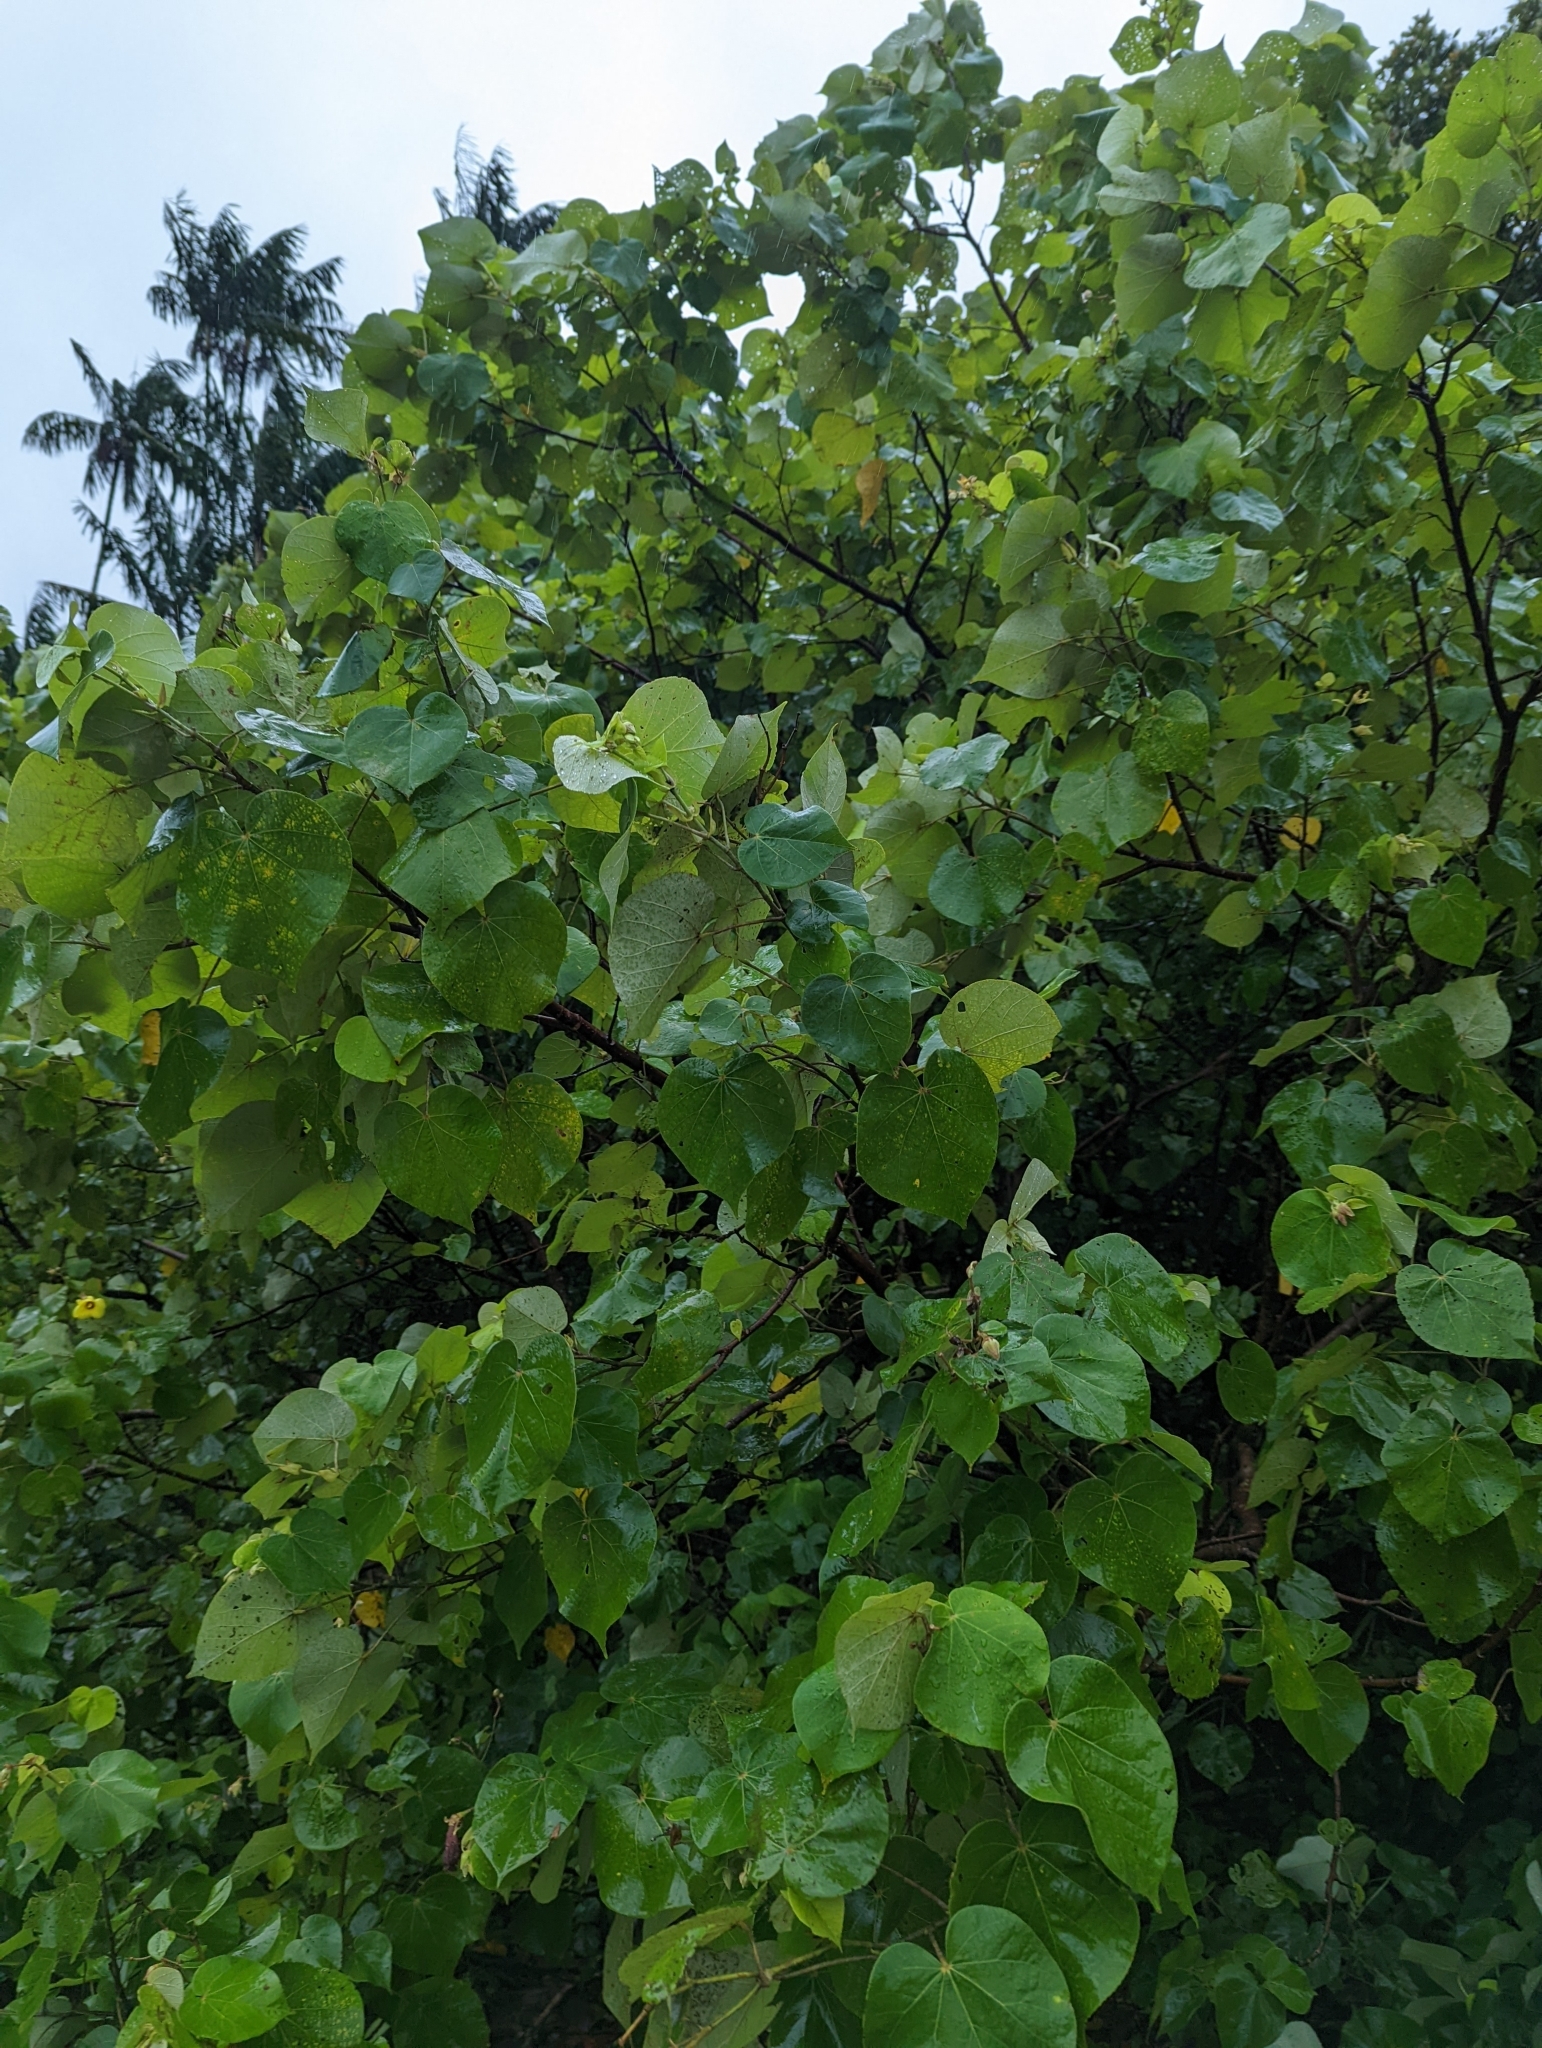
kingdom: Plantae
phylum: Tracheophyta
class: Magnoliopsida
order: Malvales
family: Malvaceae
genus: Talipariti
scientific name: Talipariti tiliaceum
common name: Sea hibiscus
